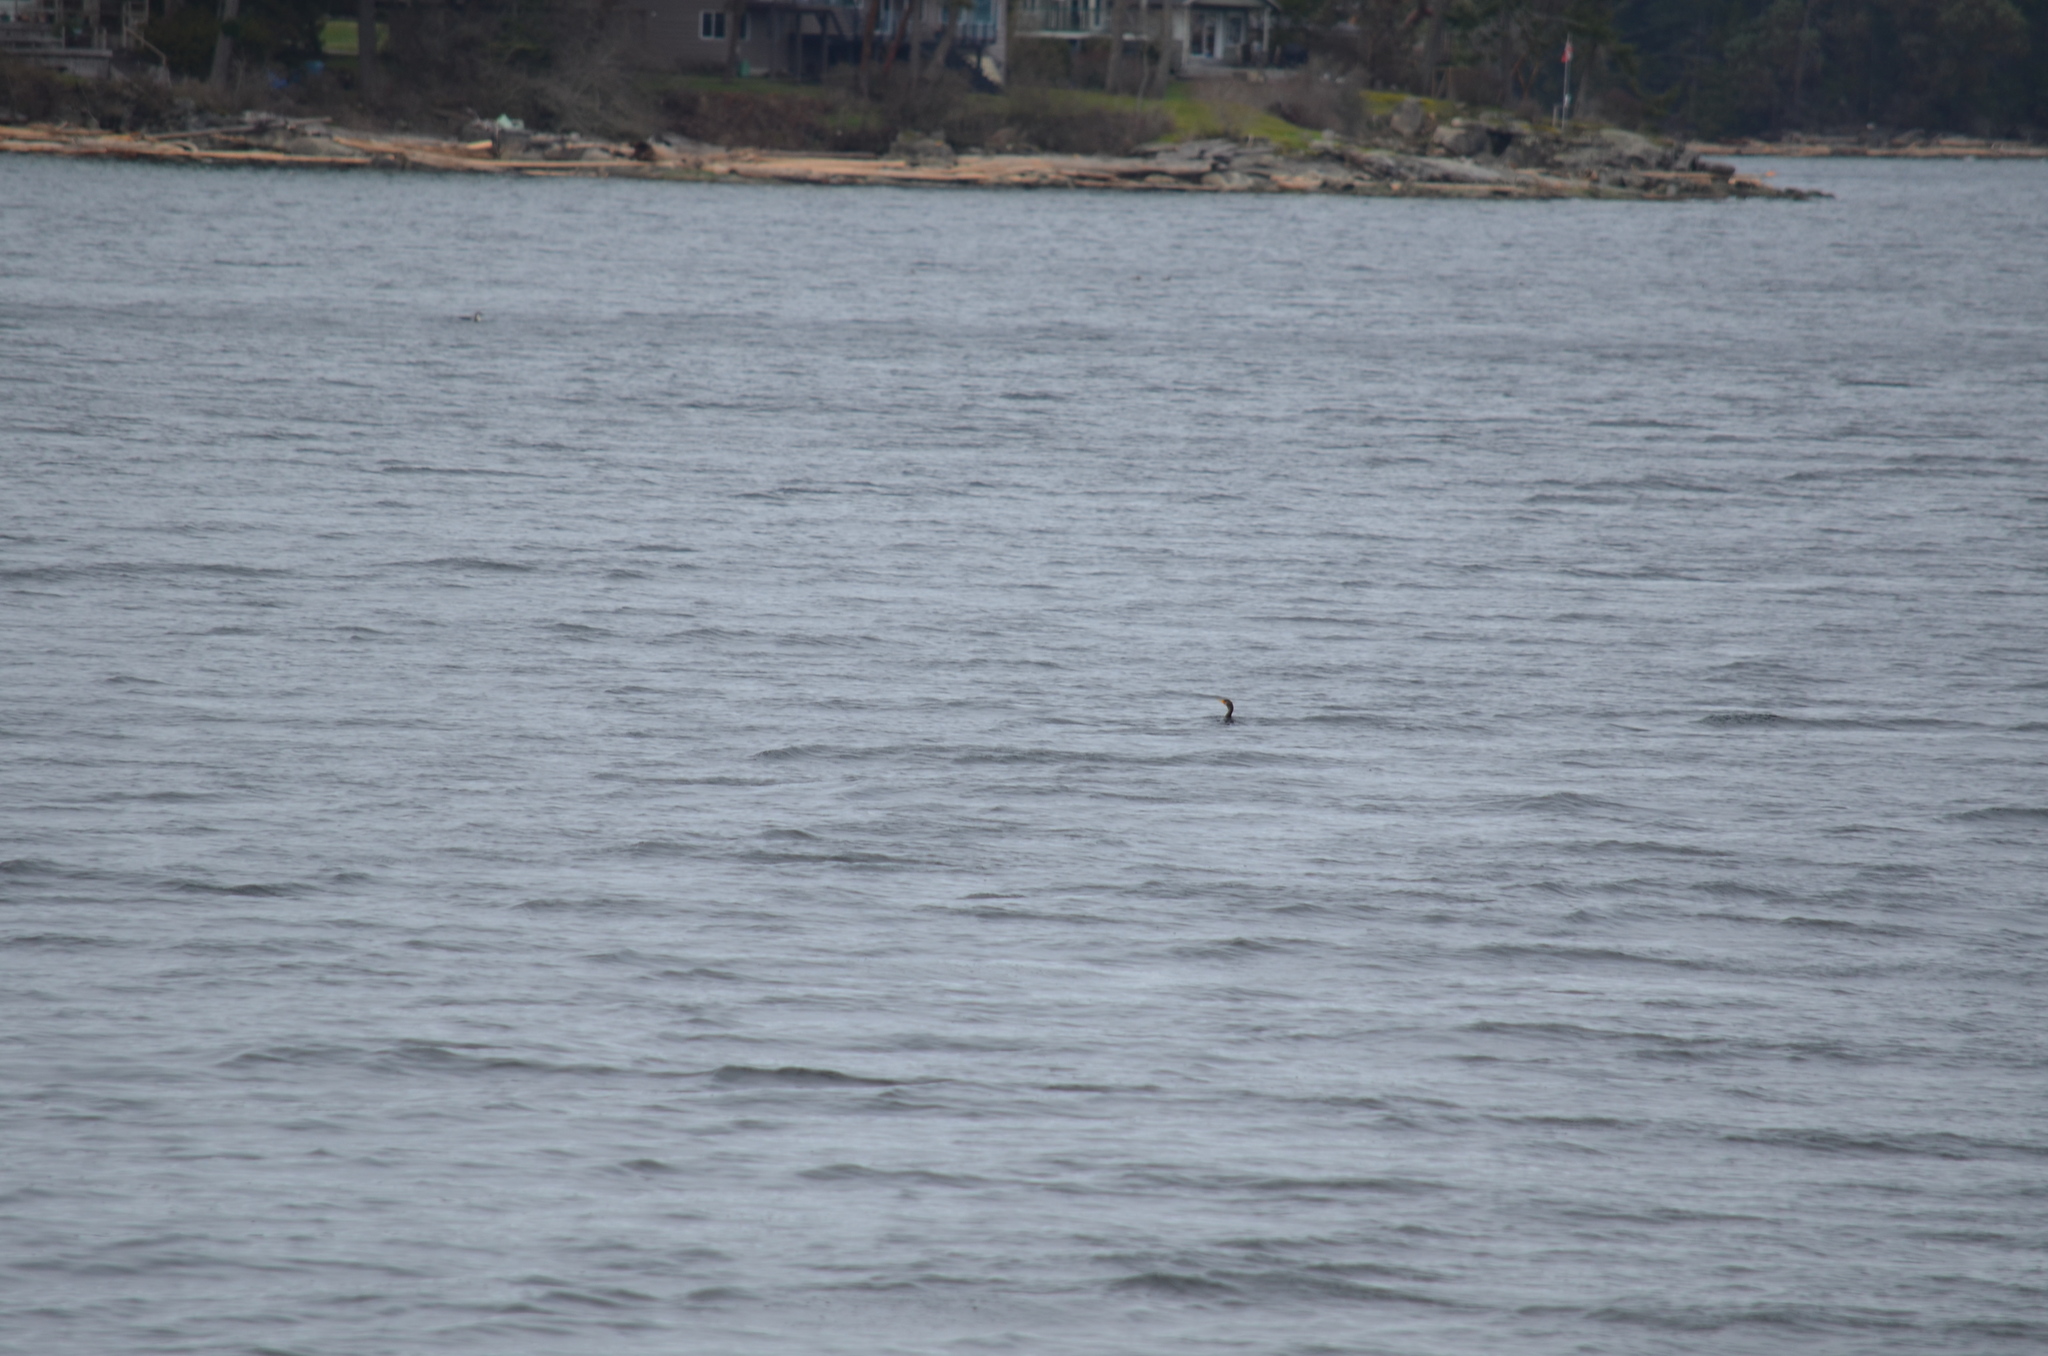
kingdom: Animalia
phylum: Chordata
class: Aves
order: Suliformes
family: Phalacrocoracidae
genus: Phalacrocorax
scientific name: Phalacrocorax auritus
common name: Double-crested cormorant
